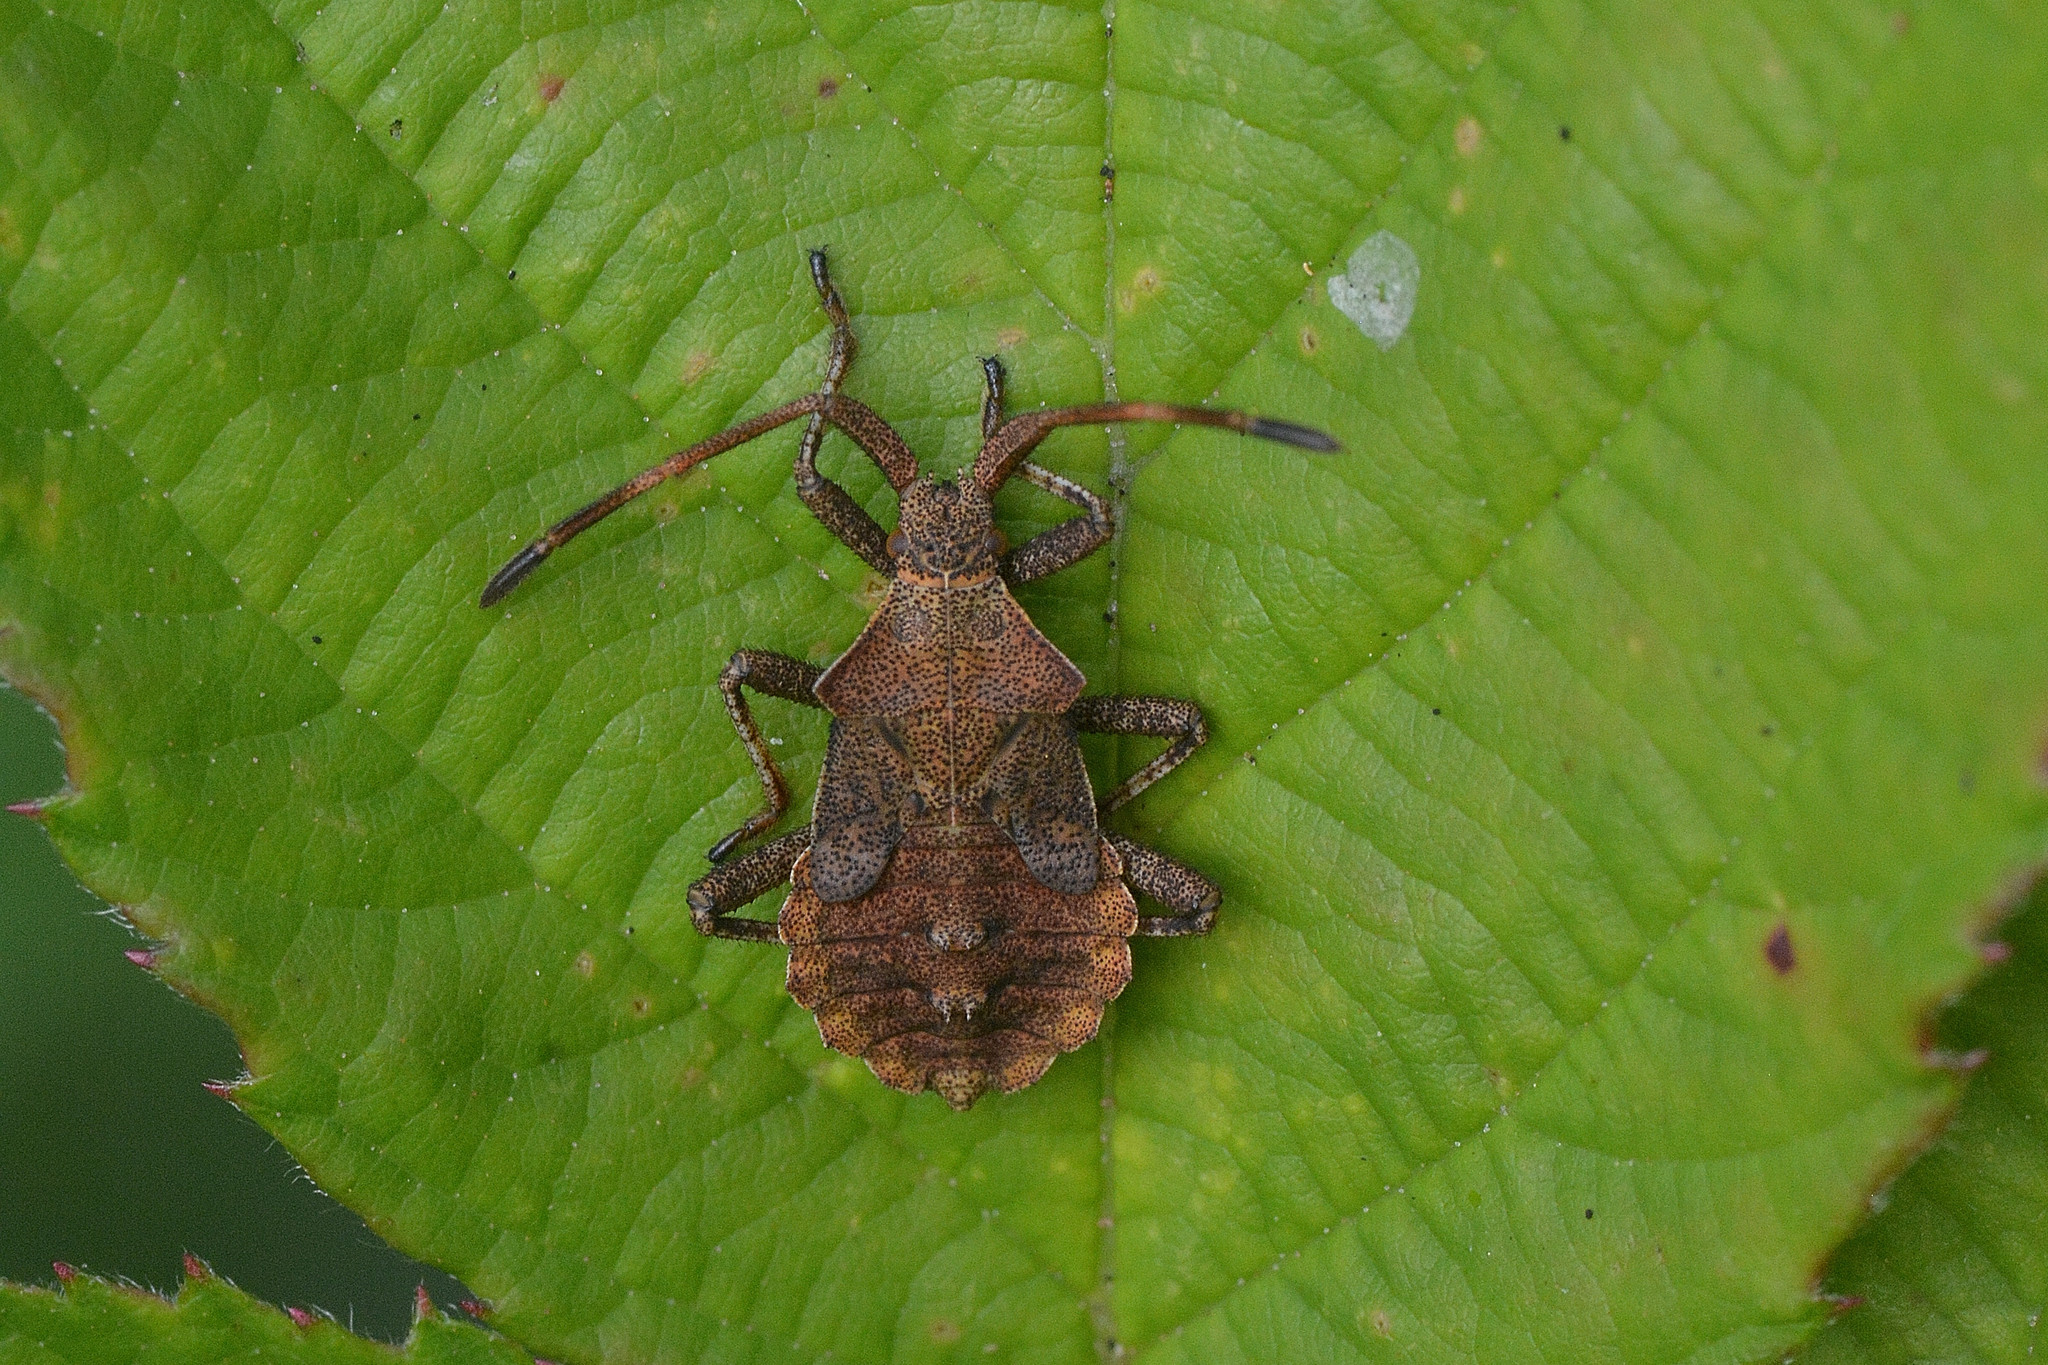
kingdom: Animalia
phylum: Arthropoda
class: Insecta
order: Hemiptera
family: Coreidae
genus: Coreus
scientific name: Coreus marginatus
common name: Dock bug
